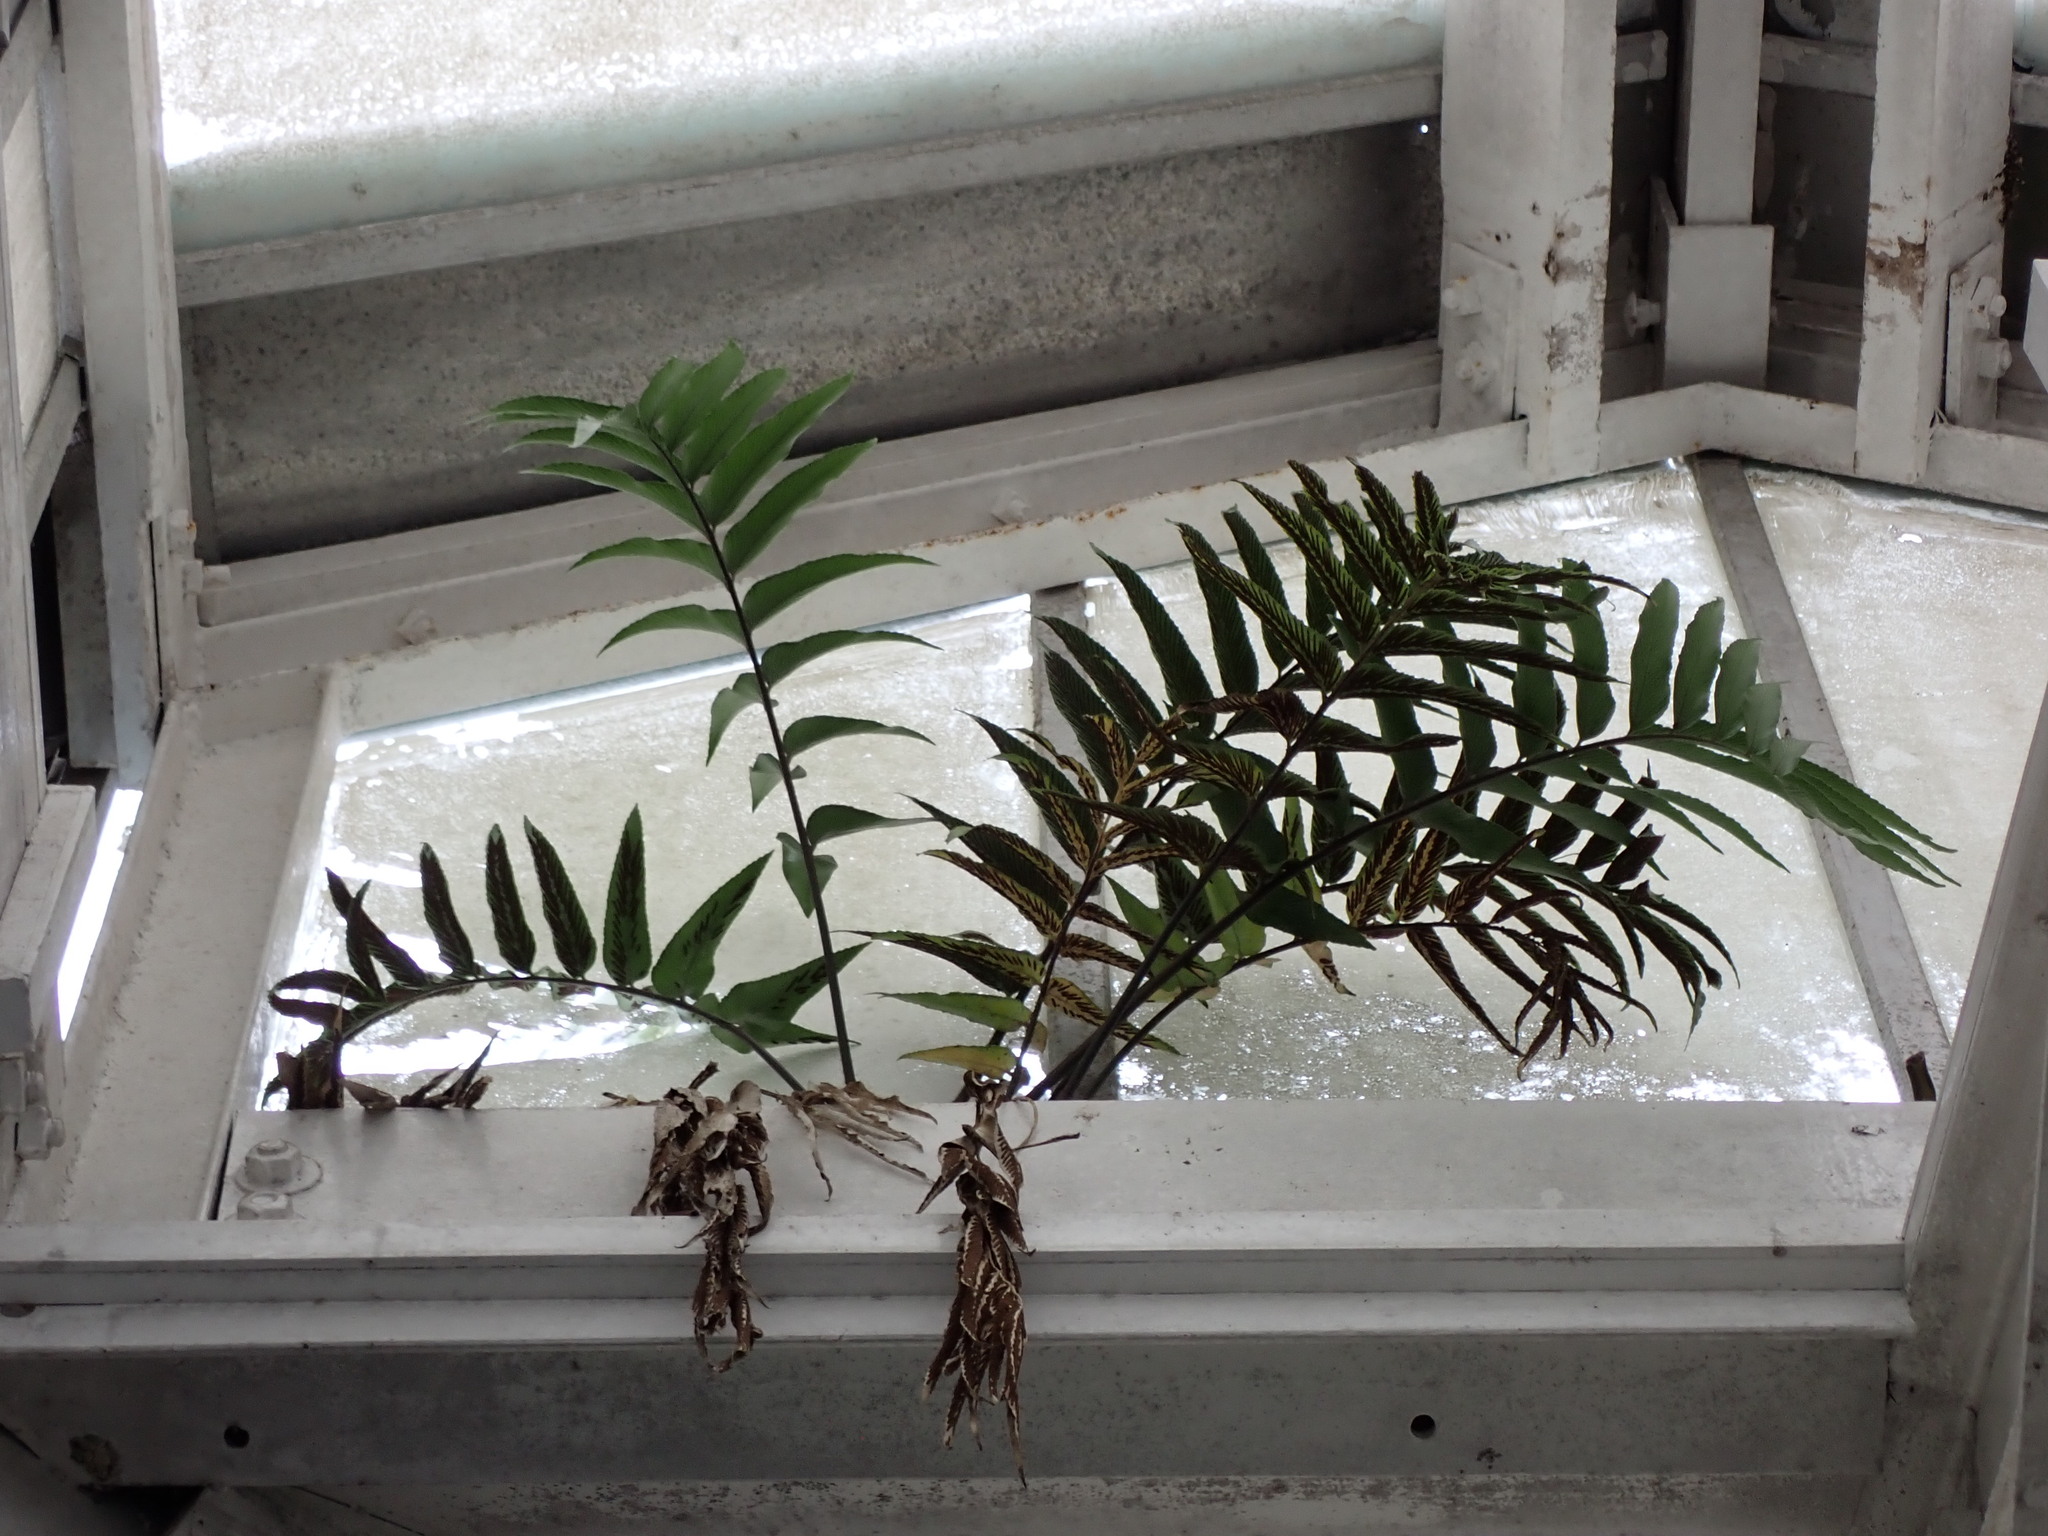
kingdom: Plantae
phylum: Tracheophyta
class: Polypodiopsida
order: Polypodiales
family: Aspleniaceae
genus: Asplenium
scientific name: Asplenium oblongifolium
